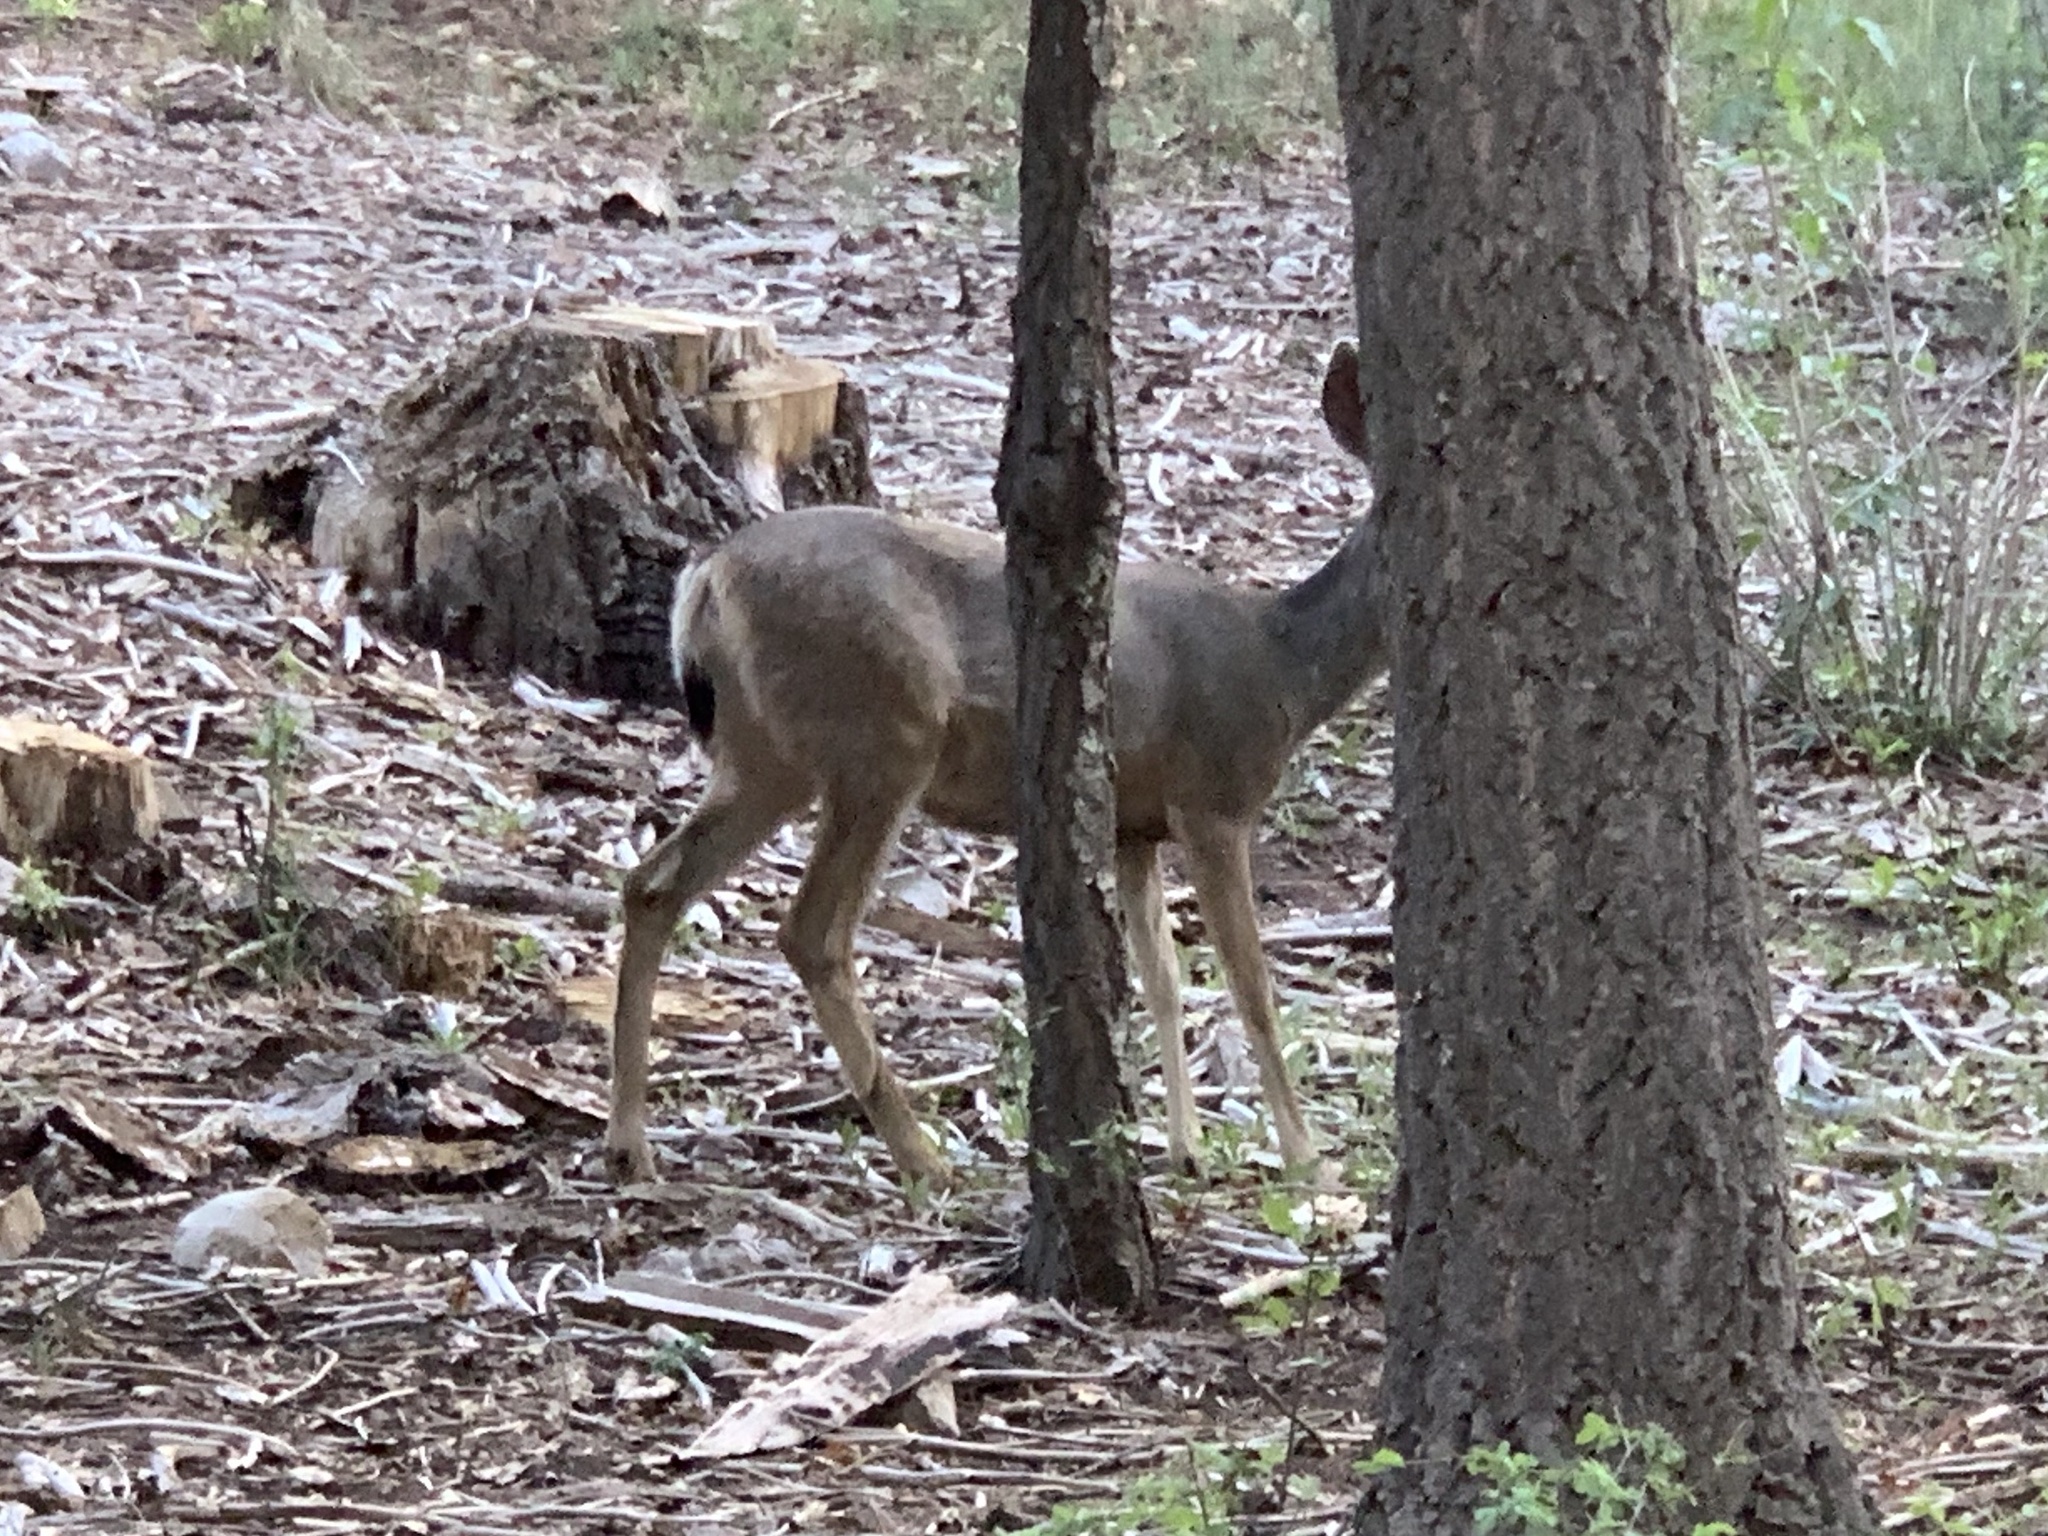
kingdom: Animalia
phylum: Chordata
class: Mammalia
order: Artiodactyla
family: Cervidae
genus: Odocoileus
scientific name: Odocoileus hemionus
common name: Mule deer
